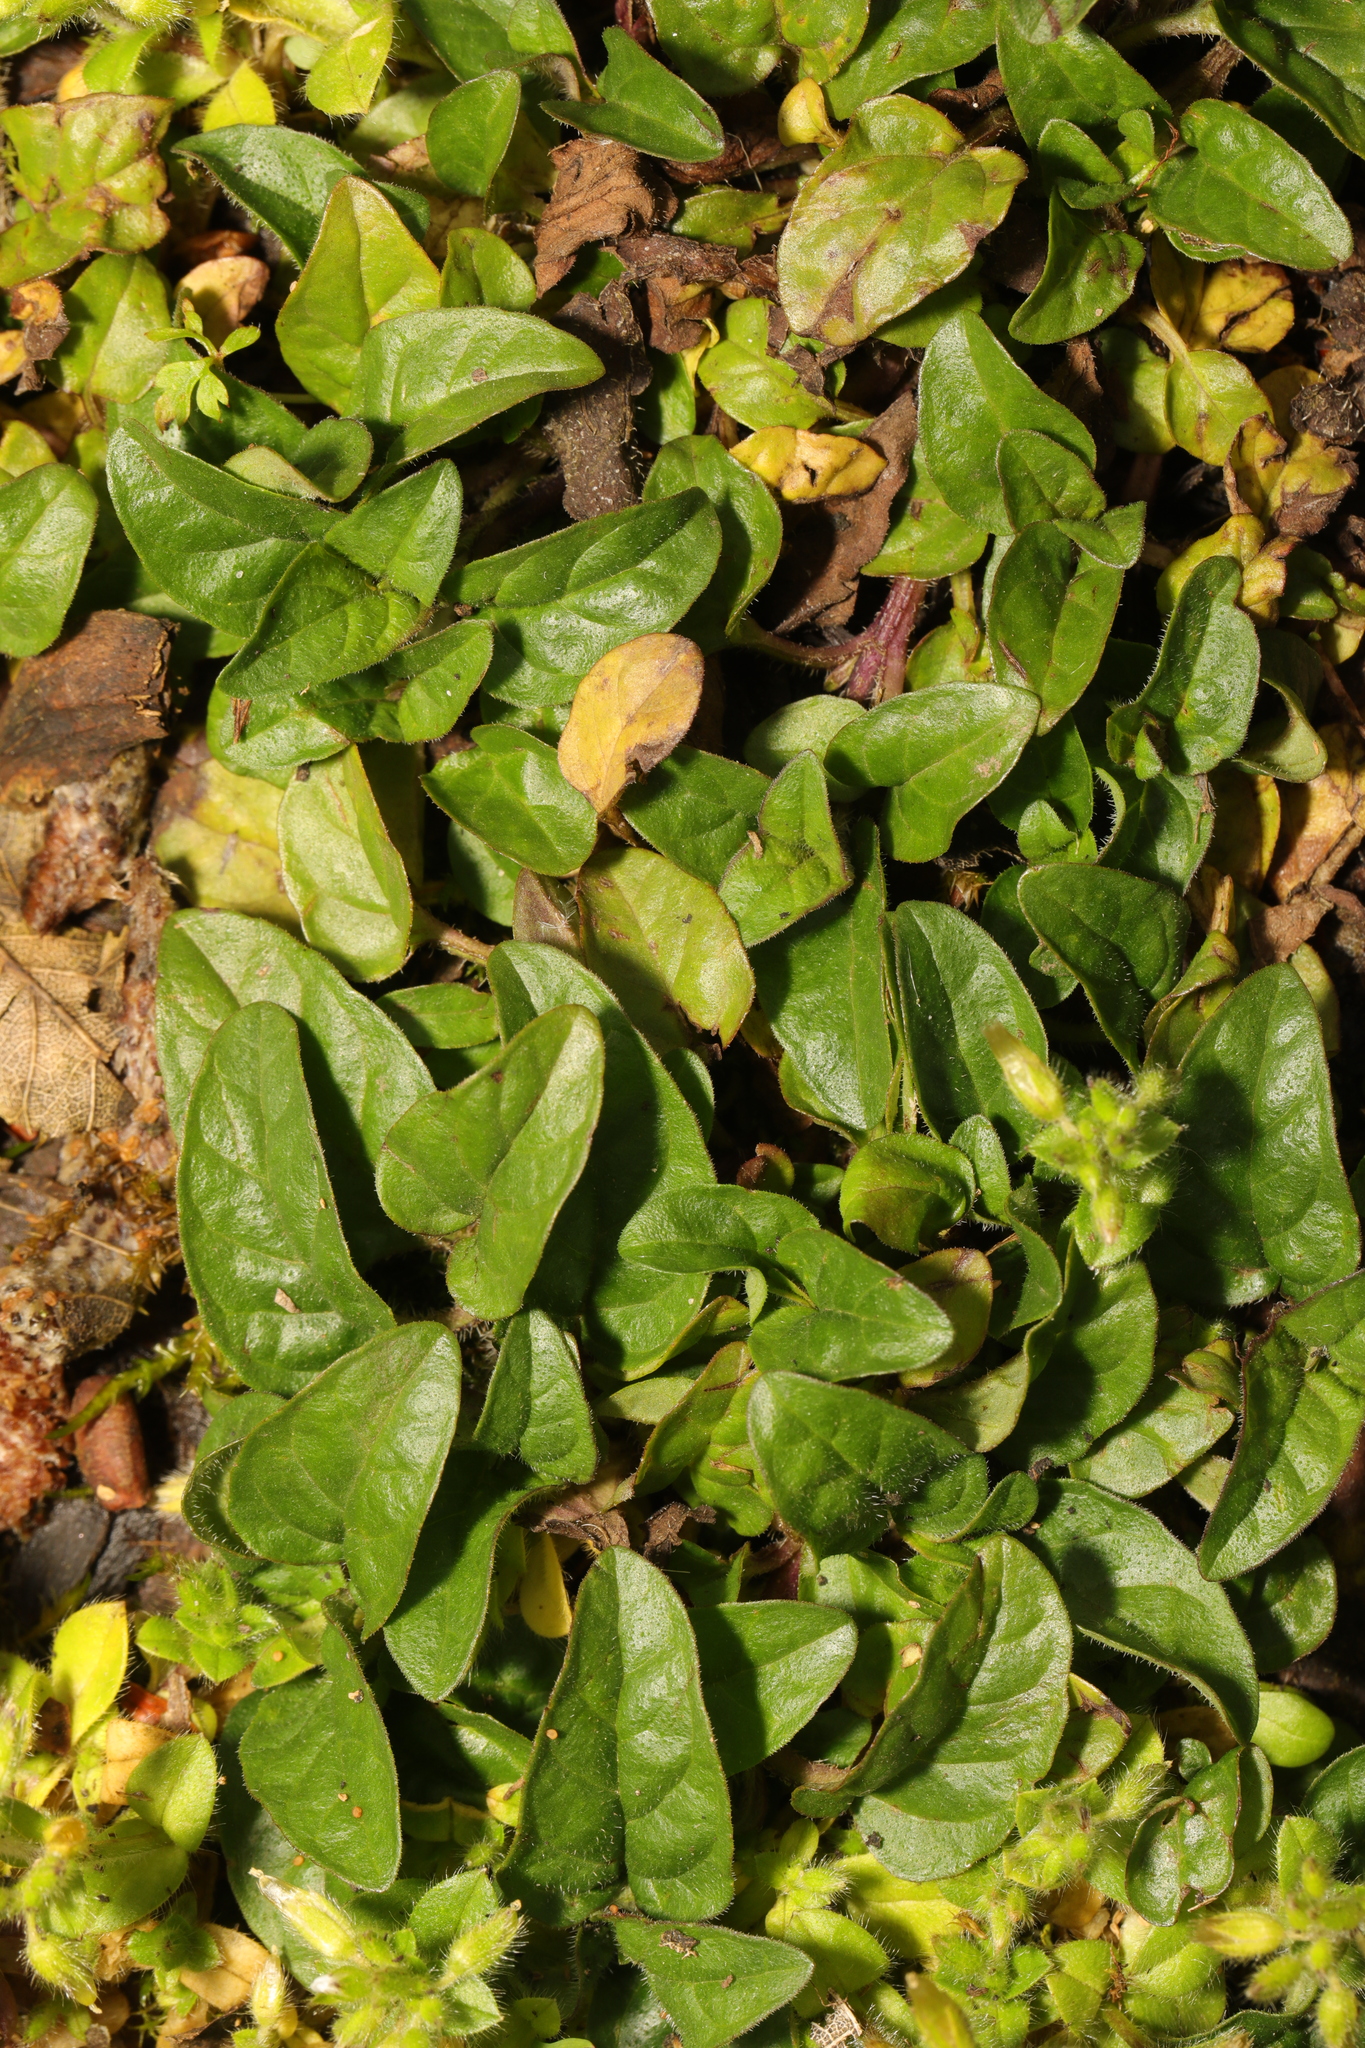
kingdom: Plantae
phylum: Tracheophyta
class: Magnoliopsida
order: Lamiales
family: Lamiaceae
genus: Prunella
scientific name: Prunella vulgaris
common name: Heal-all
